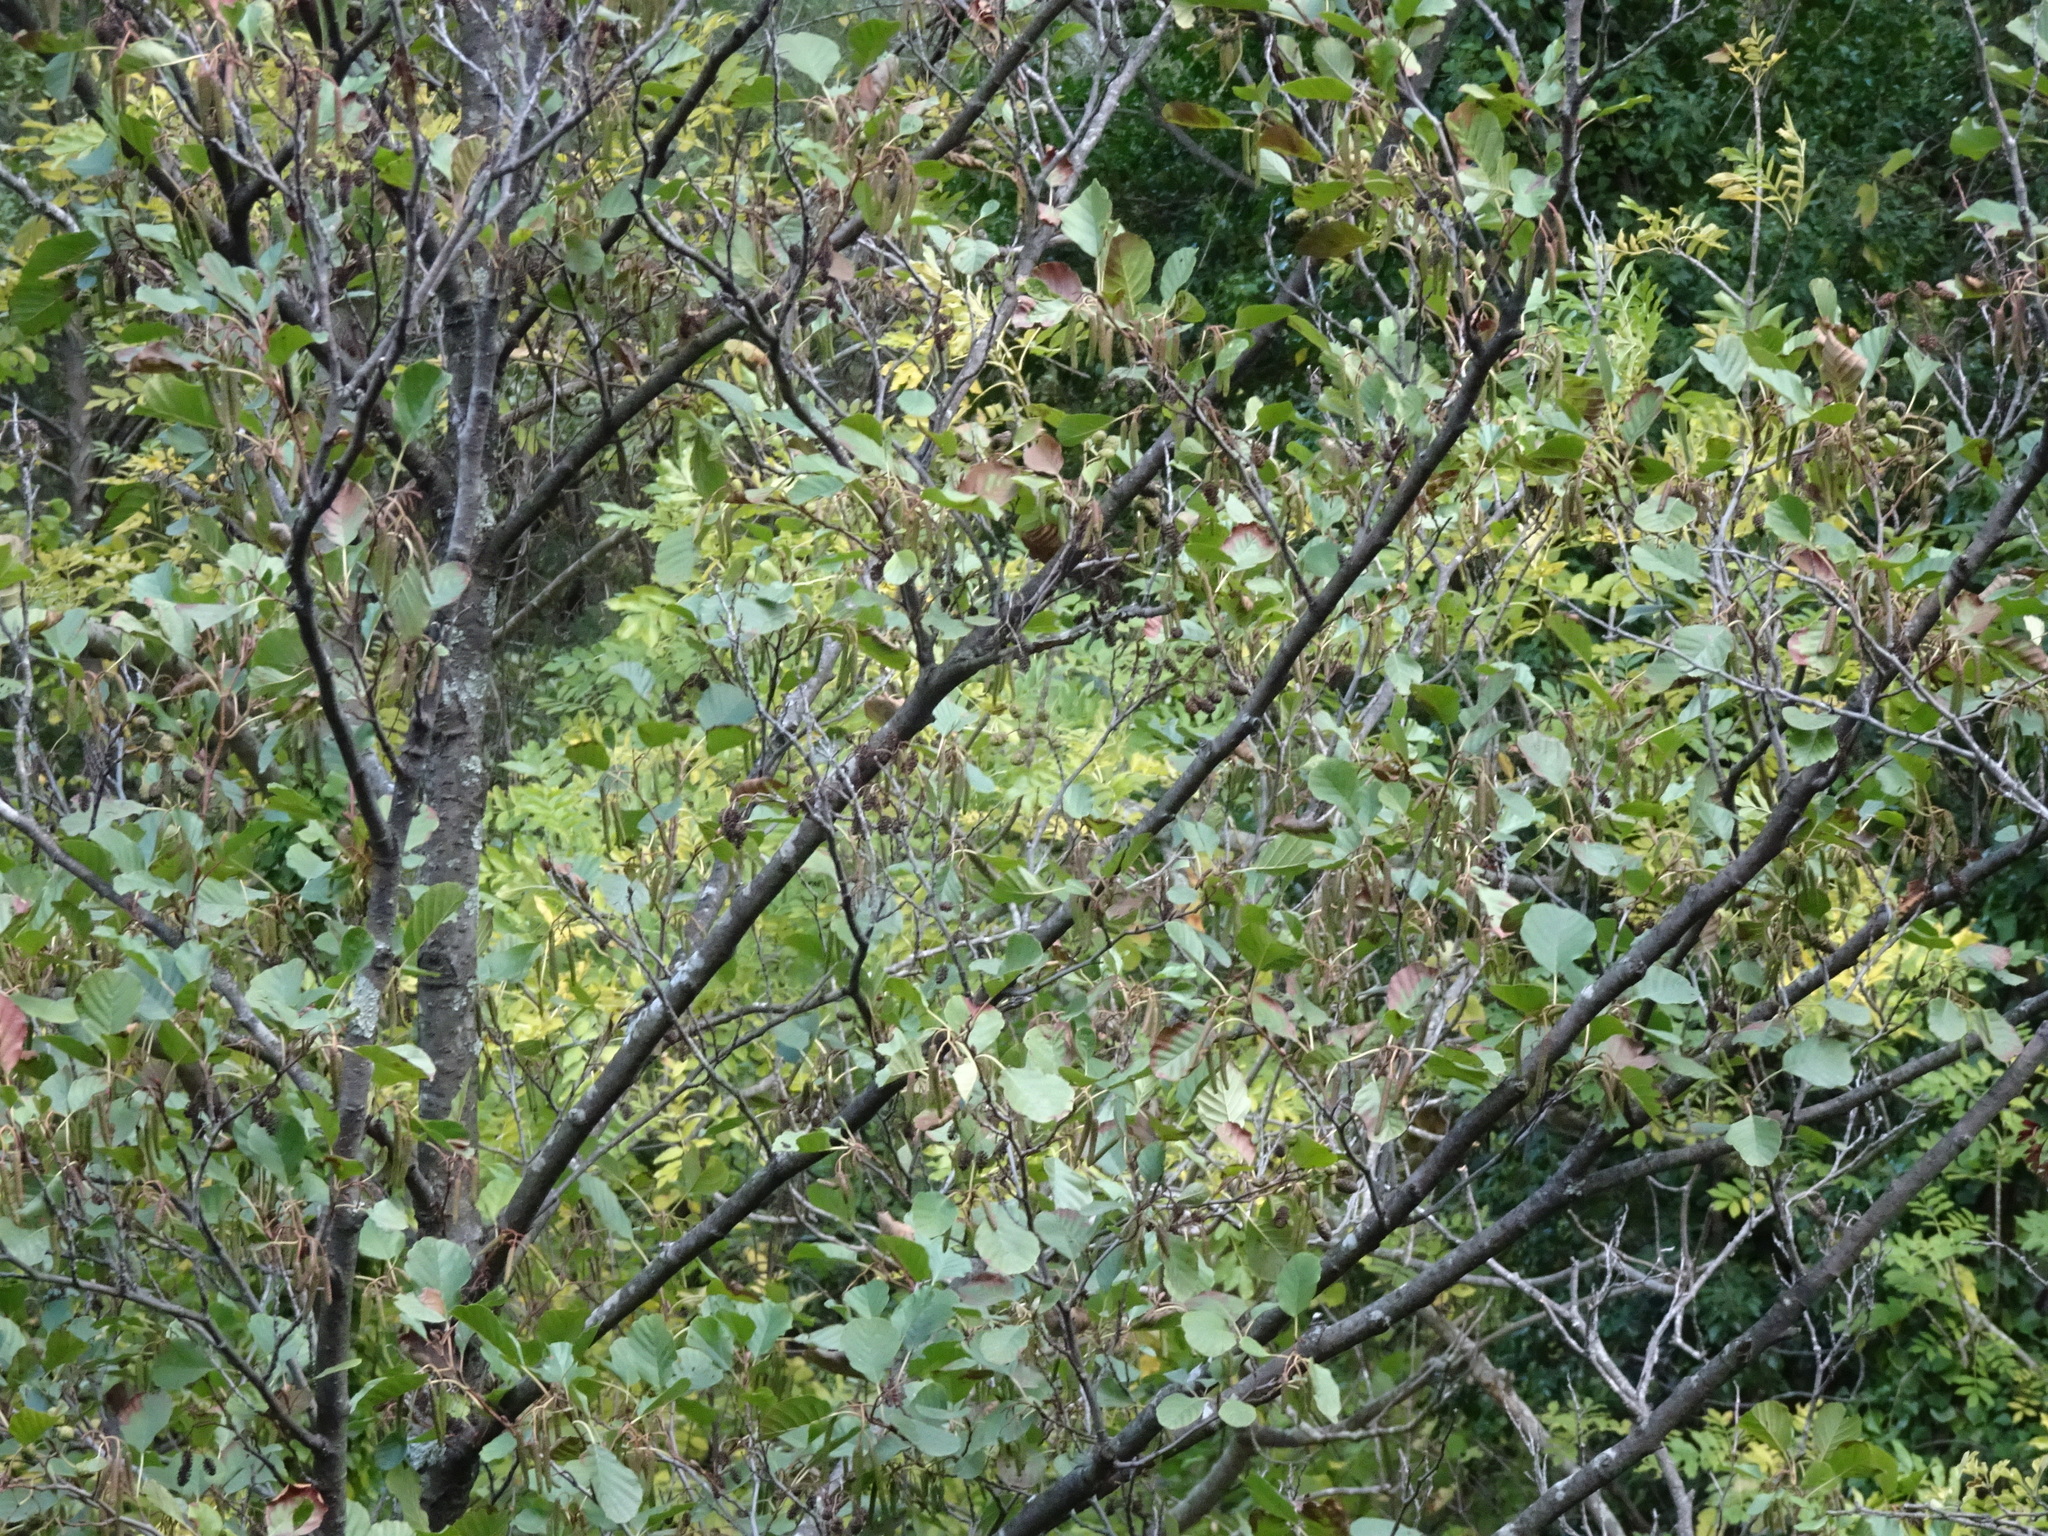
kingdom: Plantae
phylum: Tracheophyta
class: Magnoliopsida
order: Fagales
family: Betulaceae
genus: Alnus
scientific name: Alnus glutinosa
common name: Black alder
